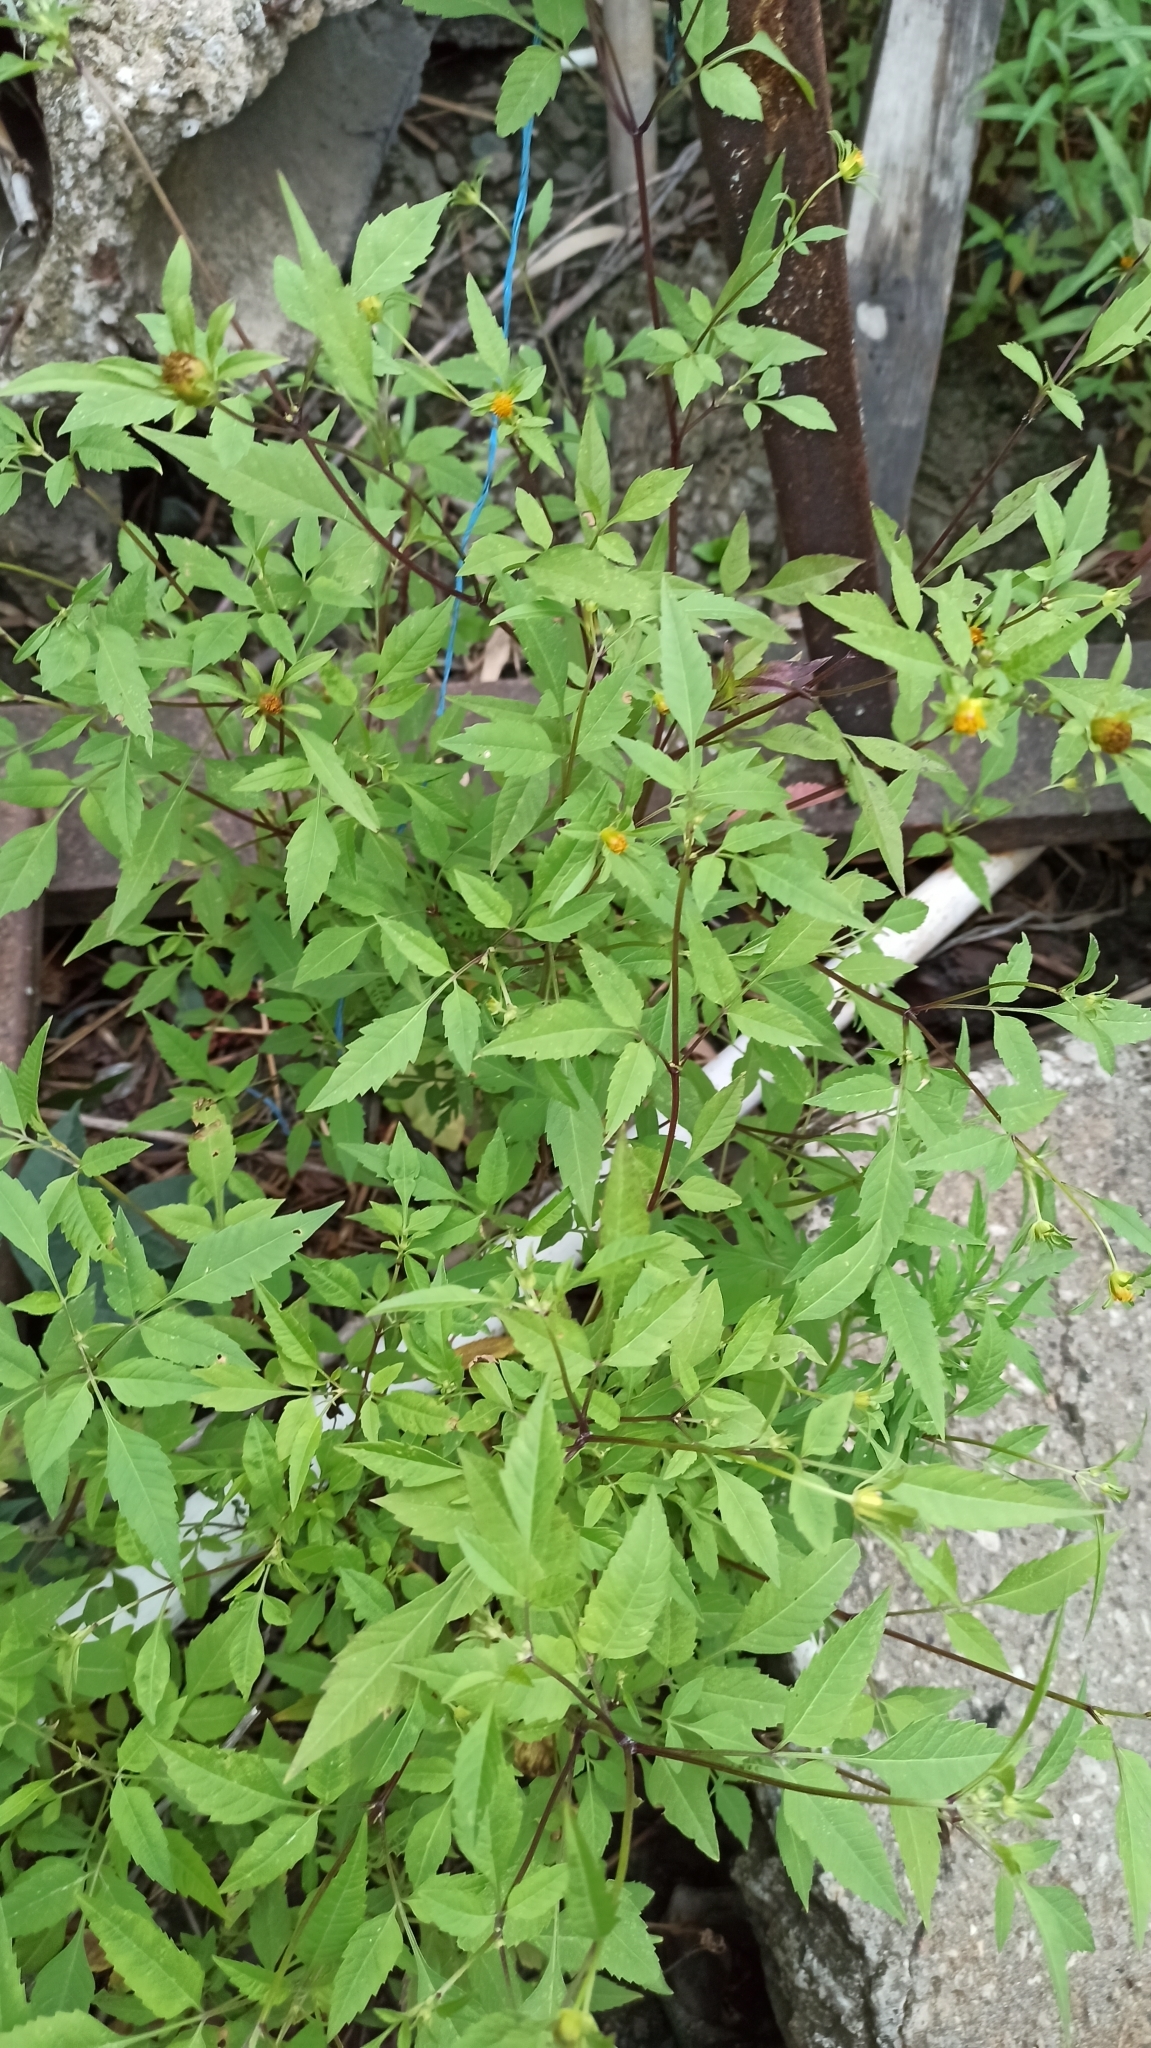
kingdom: Plantae
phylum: Tracheophyta
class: Magnoliopsida
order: Asterales
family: Asteraceae
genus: Bidens
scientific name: Bidens frondosa
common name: Beggarticks
